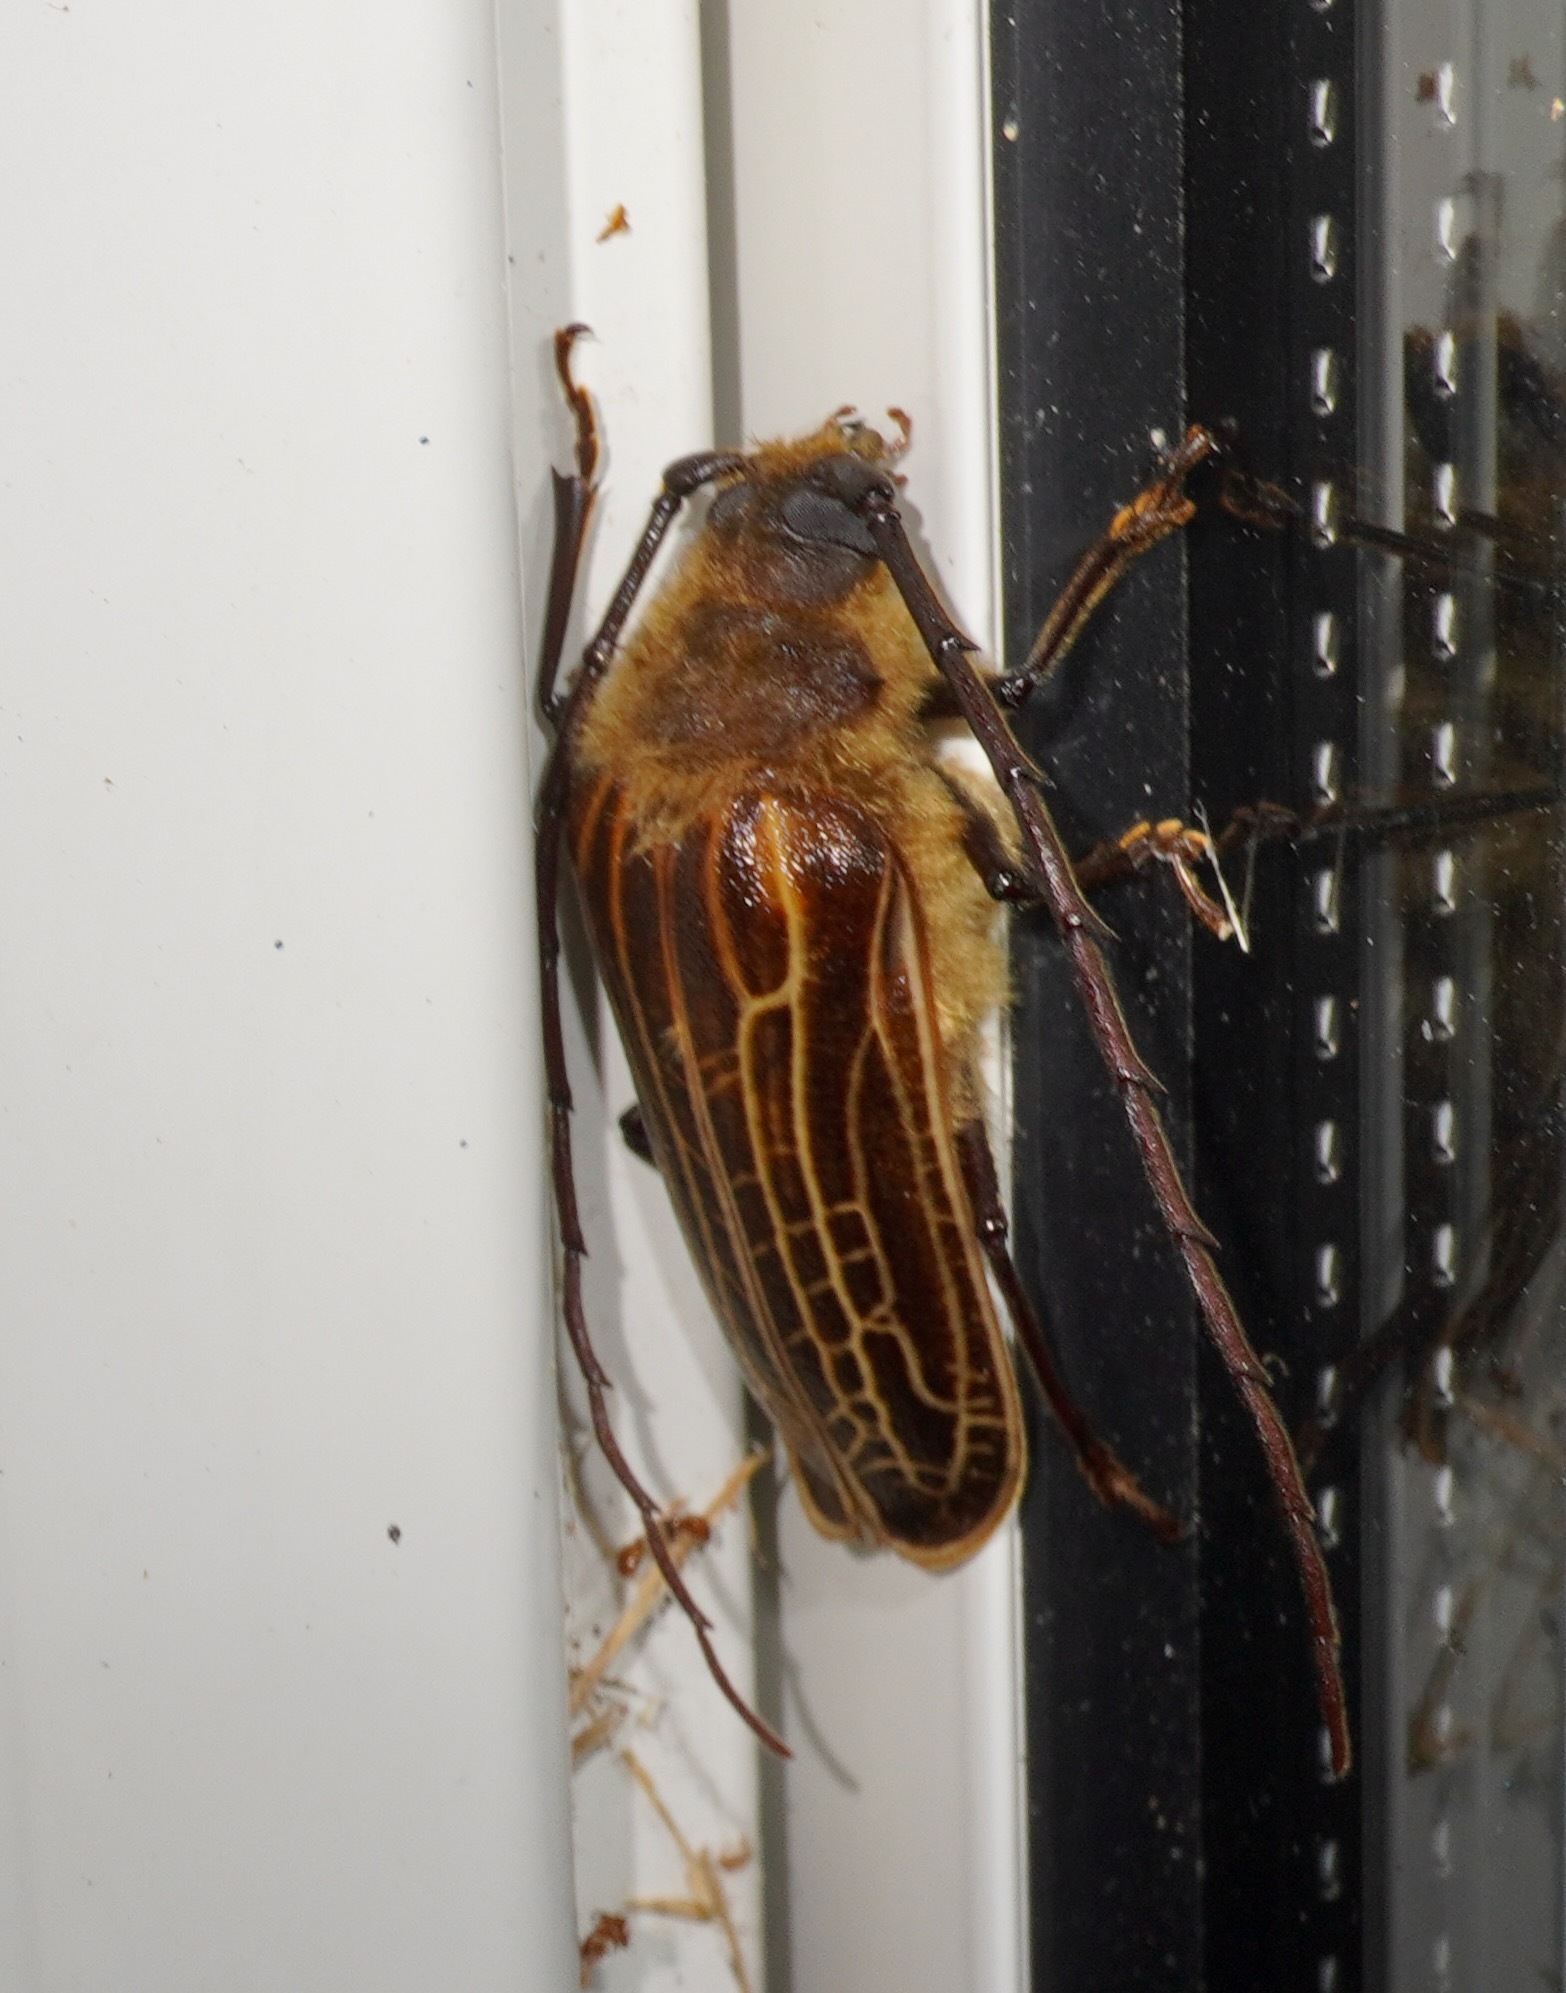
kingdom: Animalia
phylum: Arthropoda
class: Insecta
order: Coleoptera
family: Cerambycidae
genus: Prionoplus
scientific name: Prionoplus reticularis
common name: Huhu beetle
